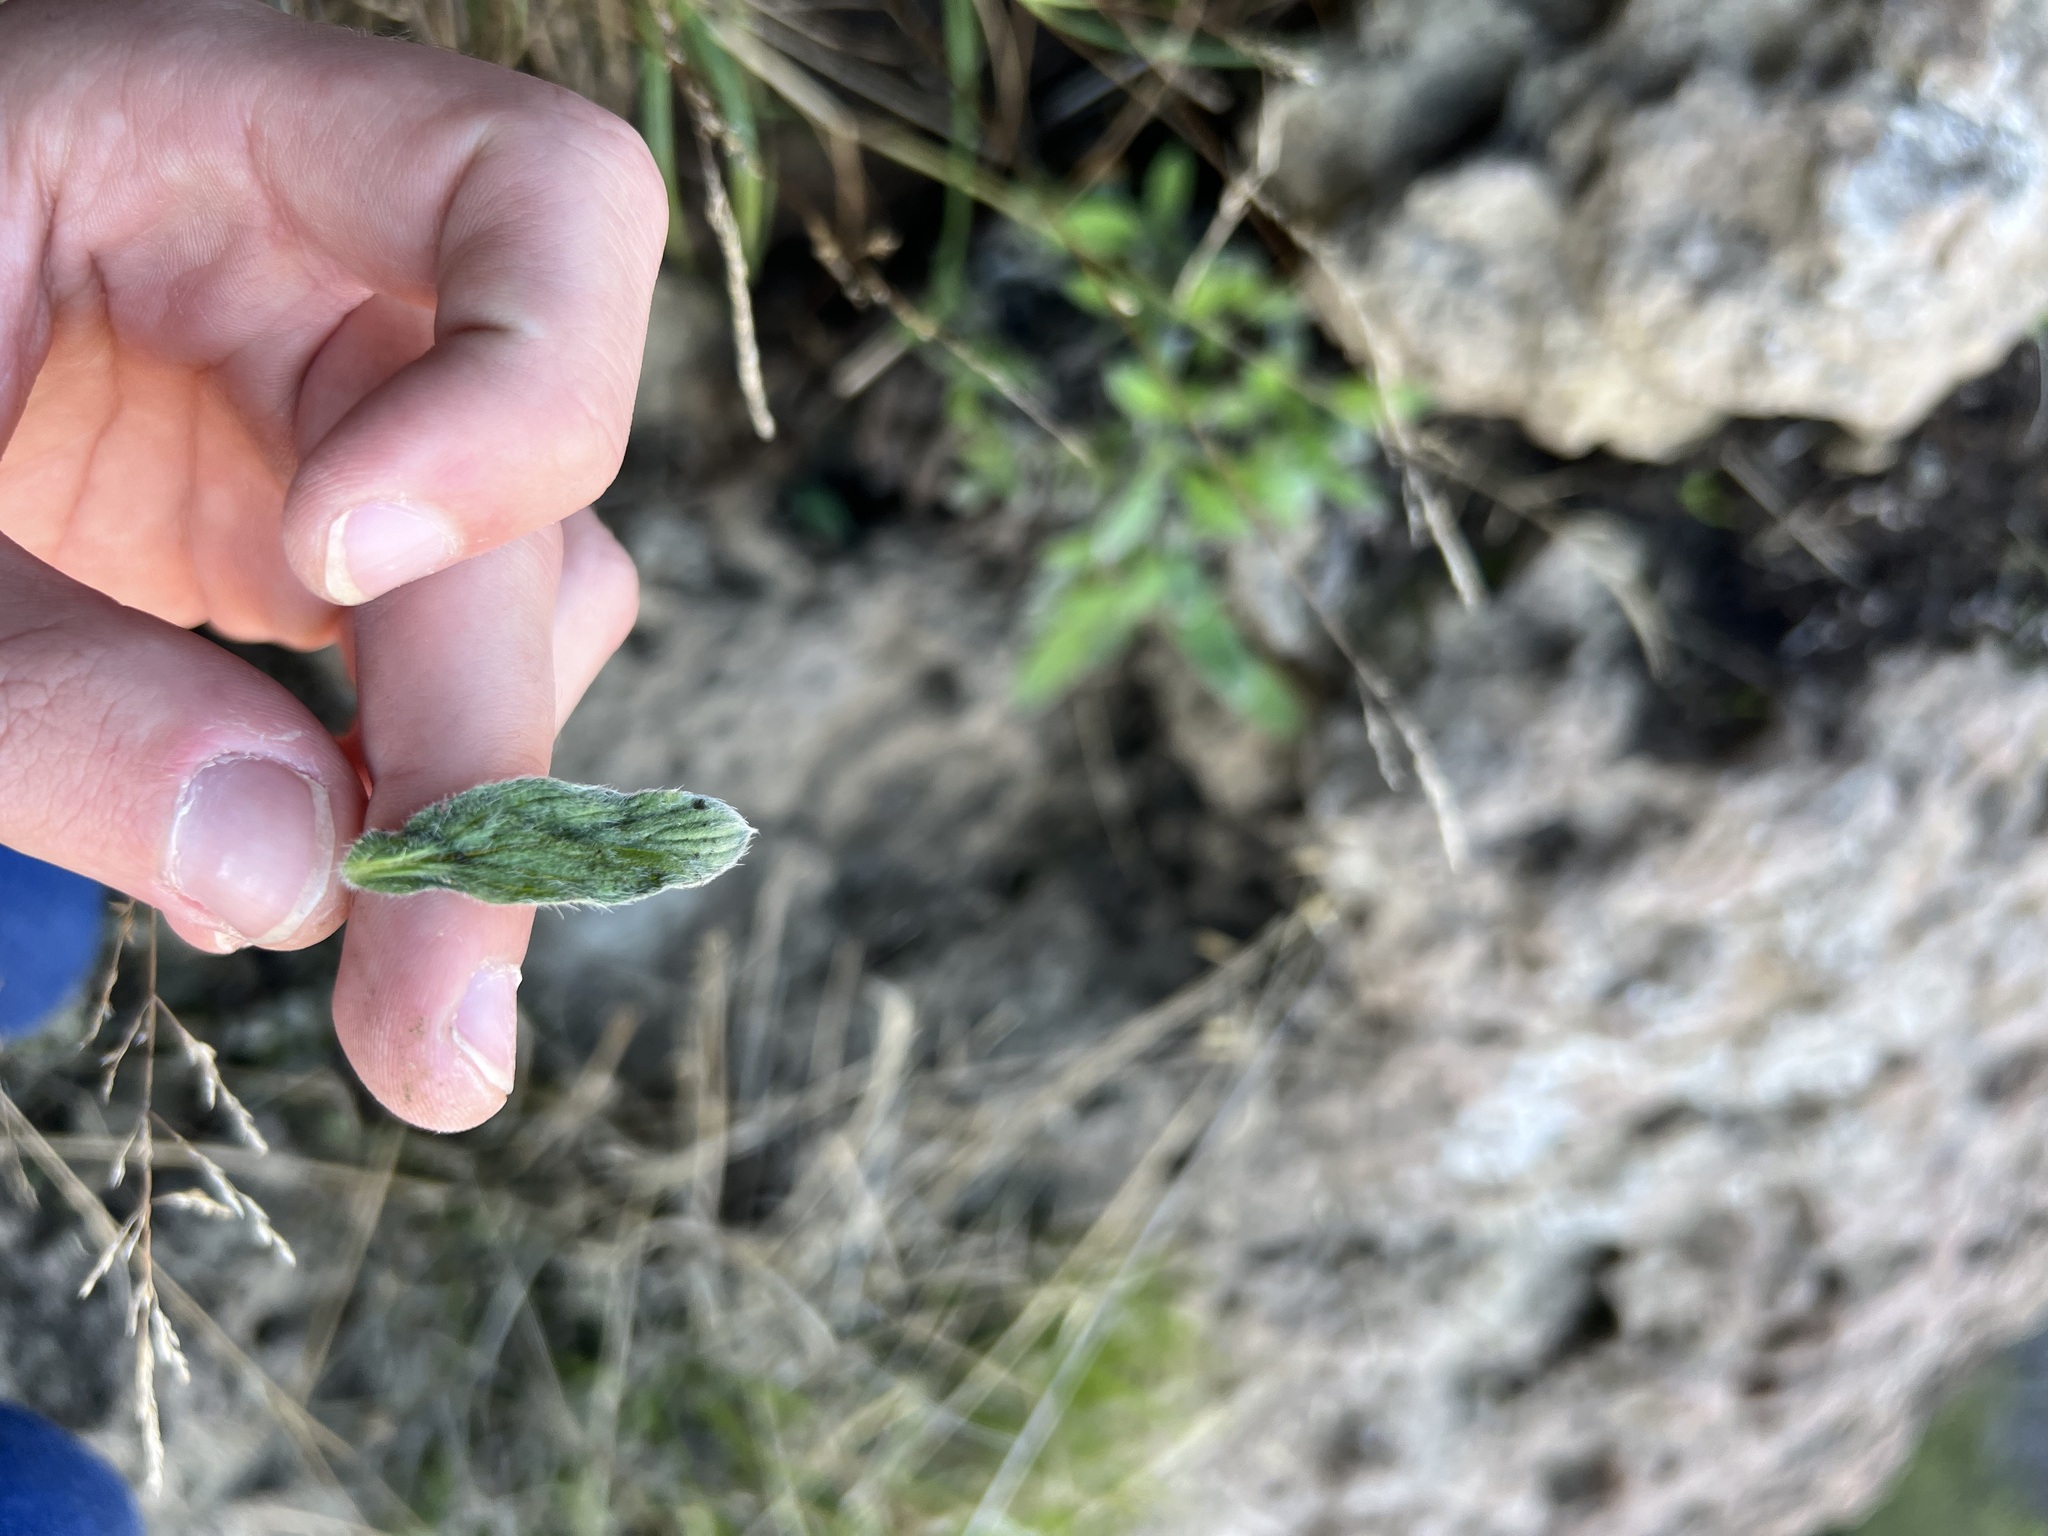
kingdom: Plantae
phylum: Tracheophyta
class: Magnoliopsida
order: Boraginales
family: Hydrophyllaceae
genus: Phacelia
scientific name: Phacelia imbricata
